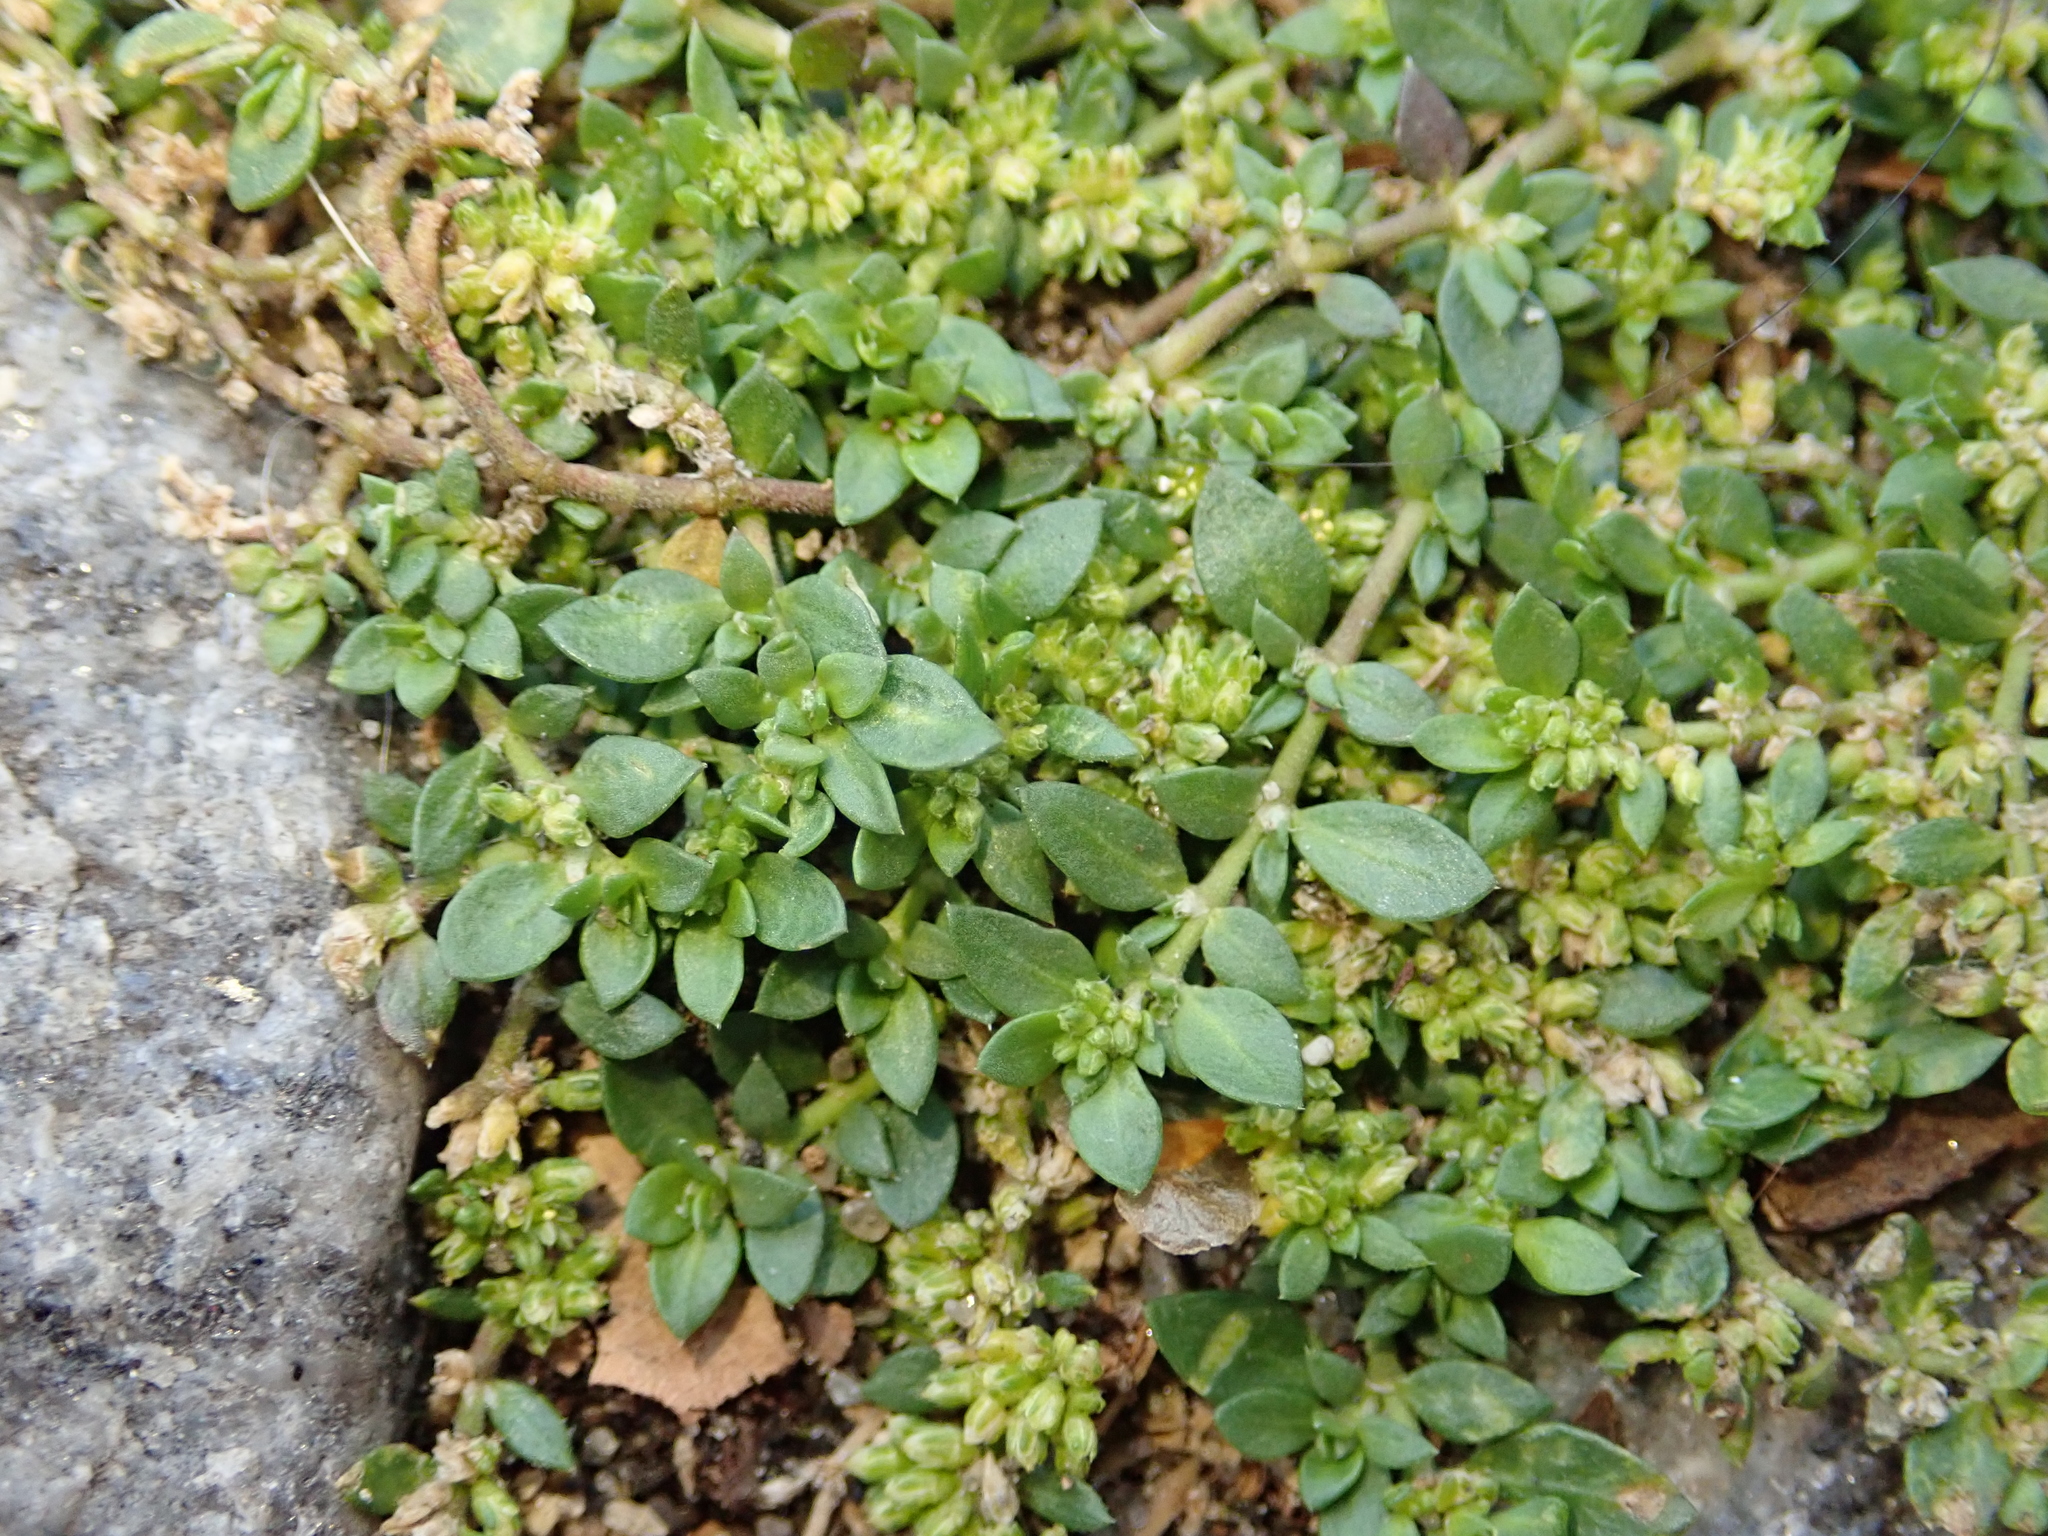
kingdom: Plantae
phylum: Tracheophyta
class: Magnoliopsida
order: Caryophyllales
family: Caryophyllaceae
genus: Herniaria
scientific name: Herniaria glabra
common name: Smooth rupturewort
